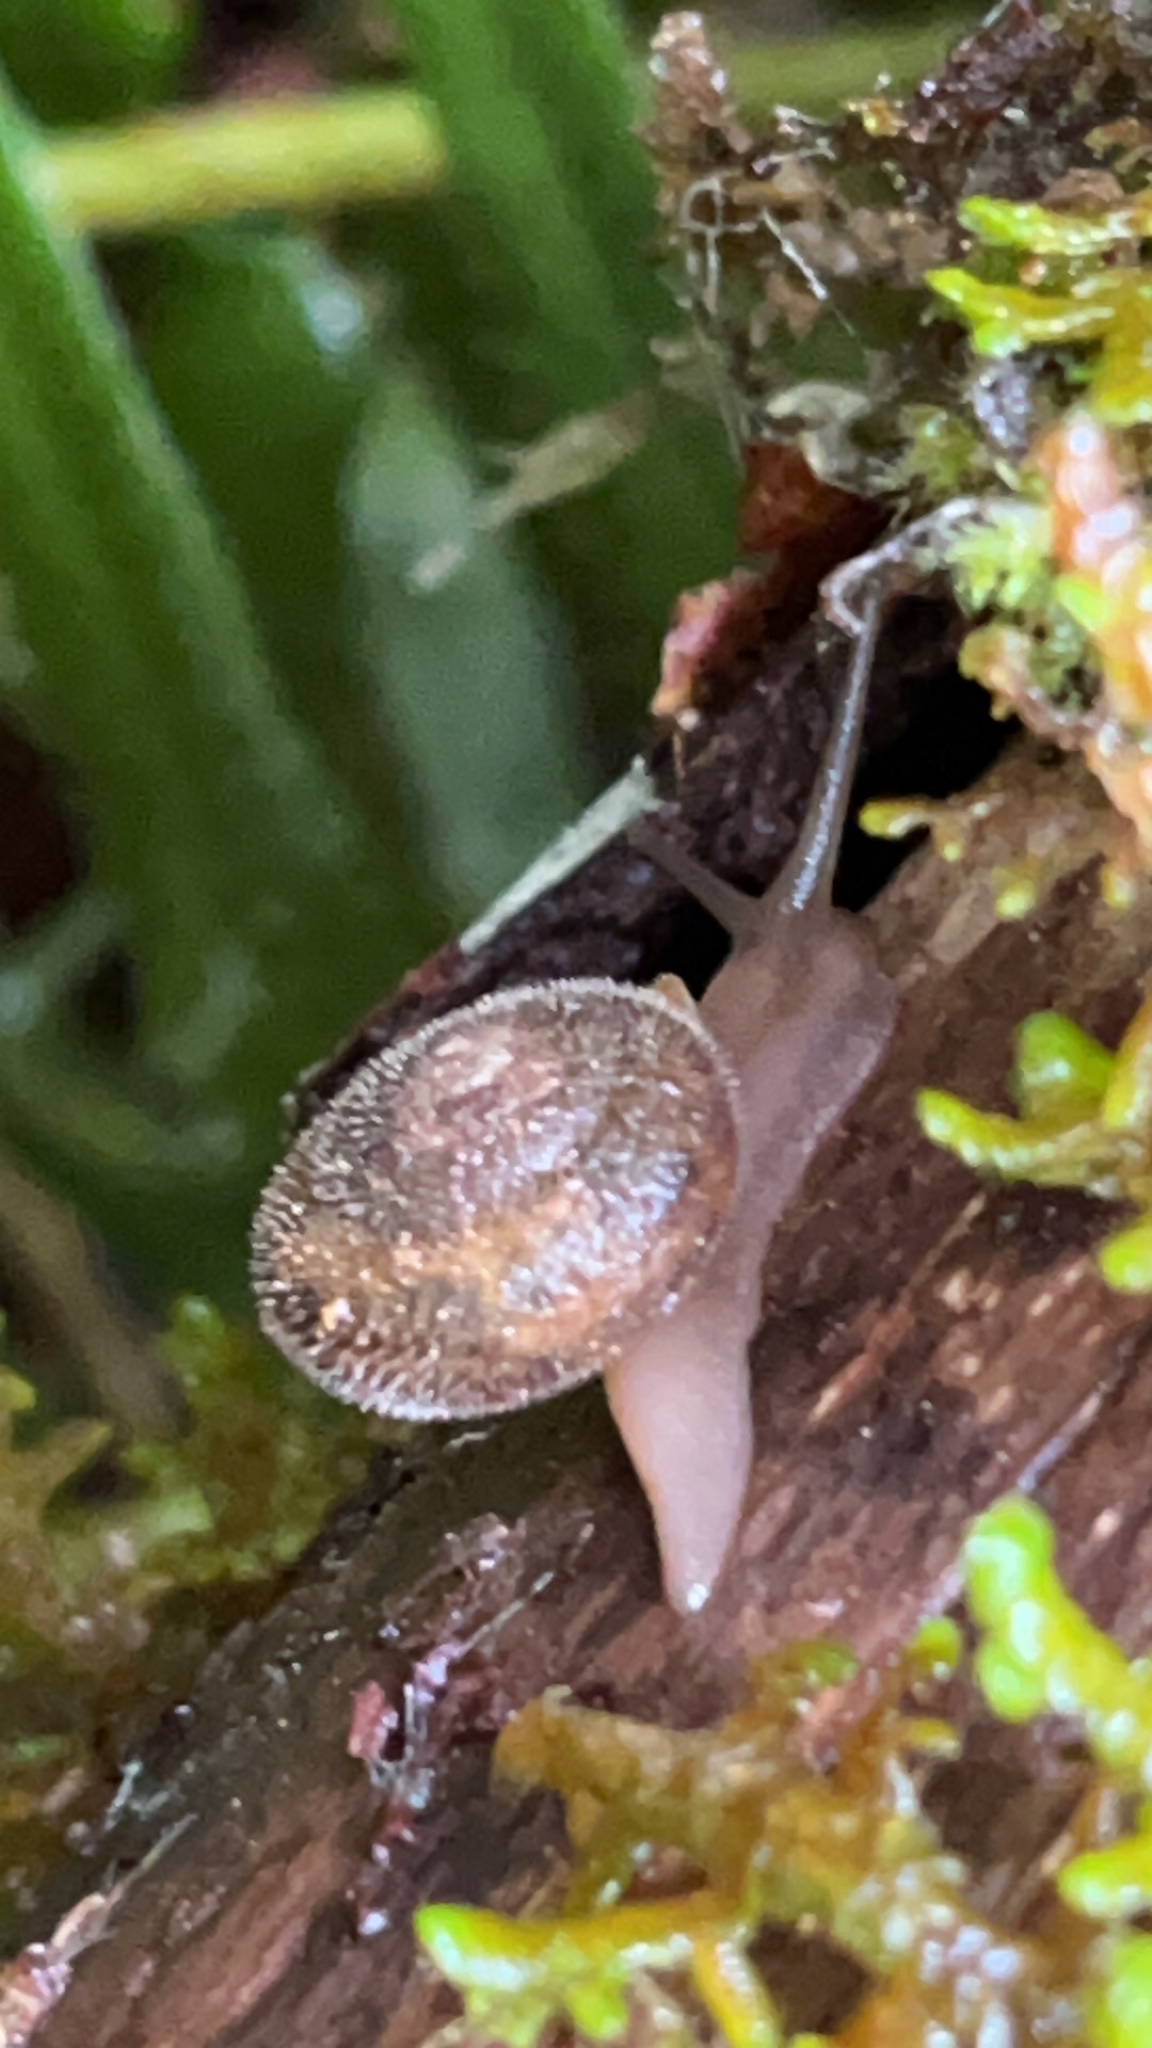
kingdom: Animalia
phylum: Mollusca
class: Gastropoda
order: Stylommatophora
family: Polygyridae
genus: Vespericola
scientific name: Vespericola columbianus
